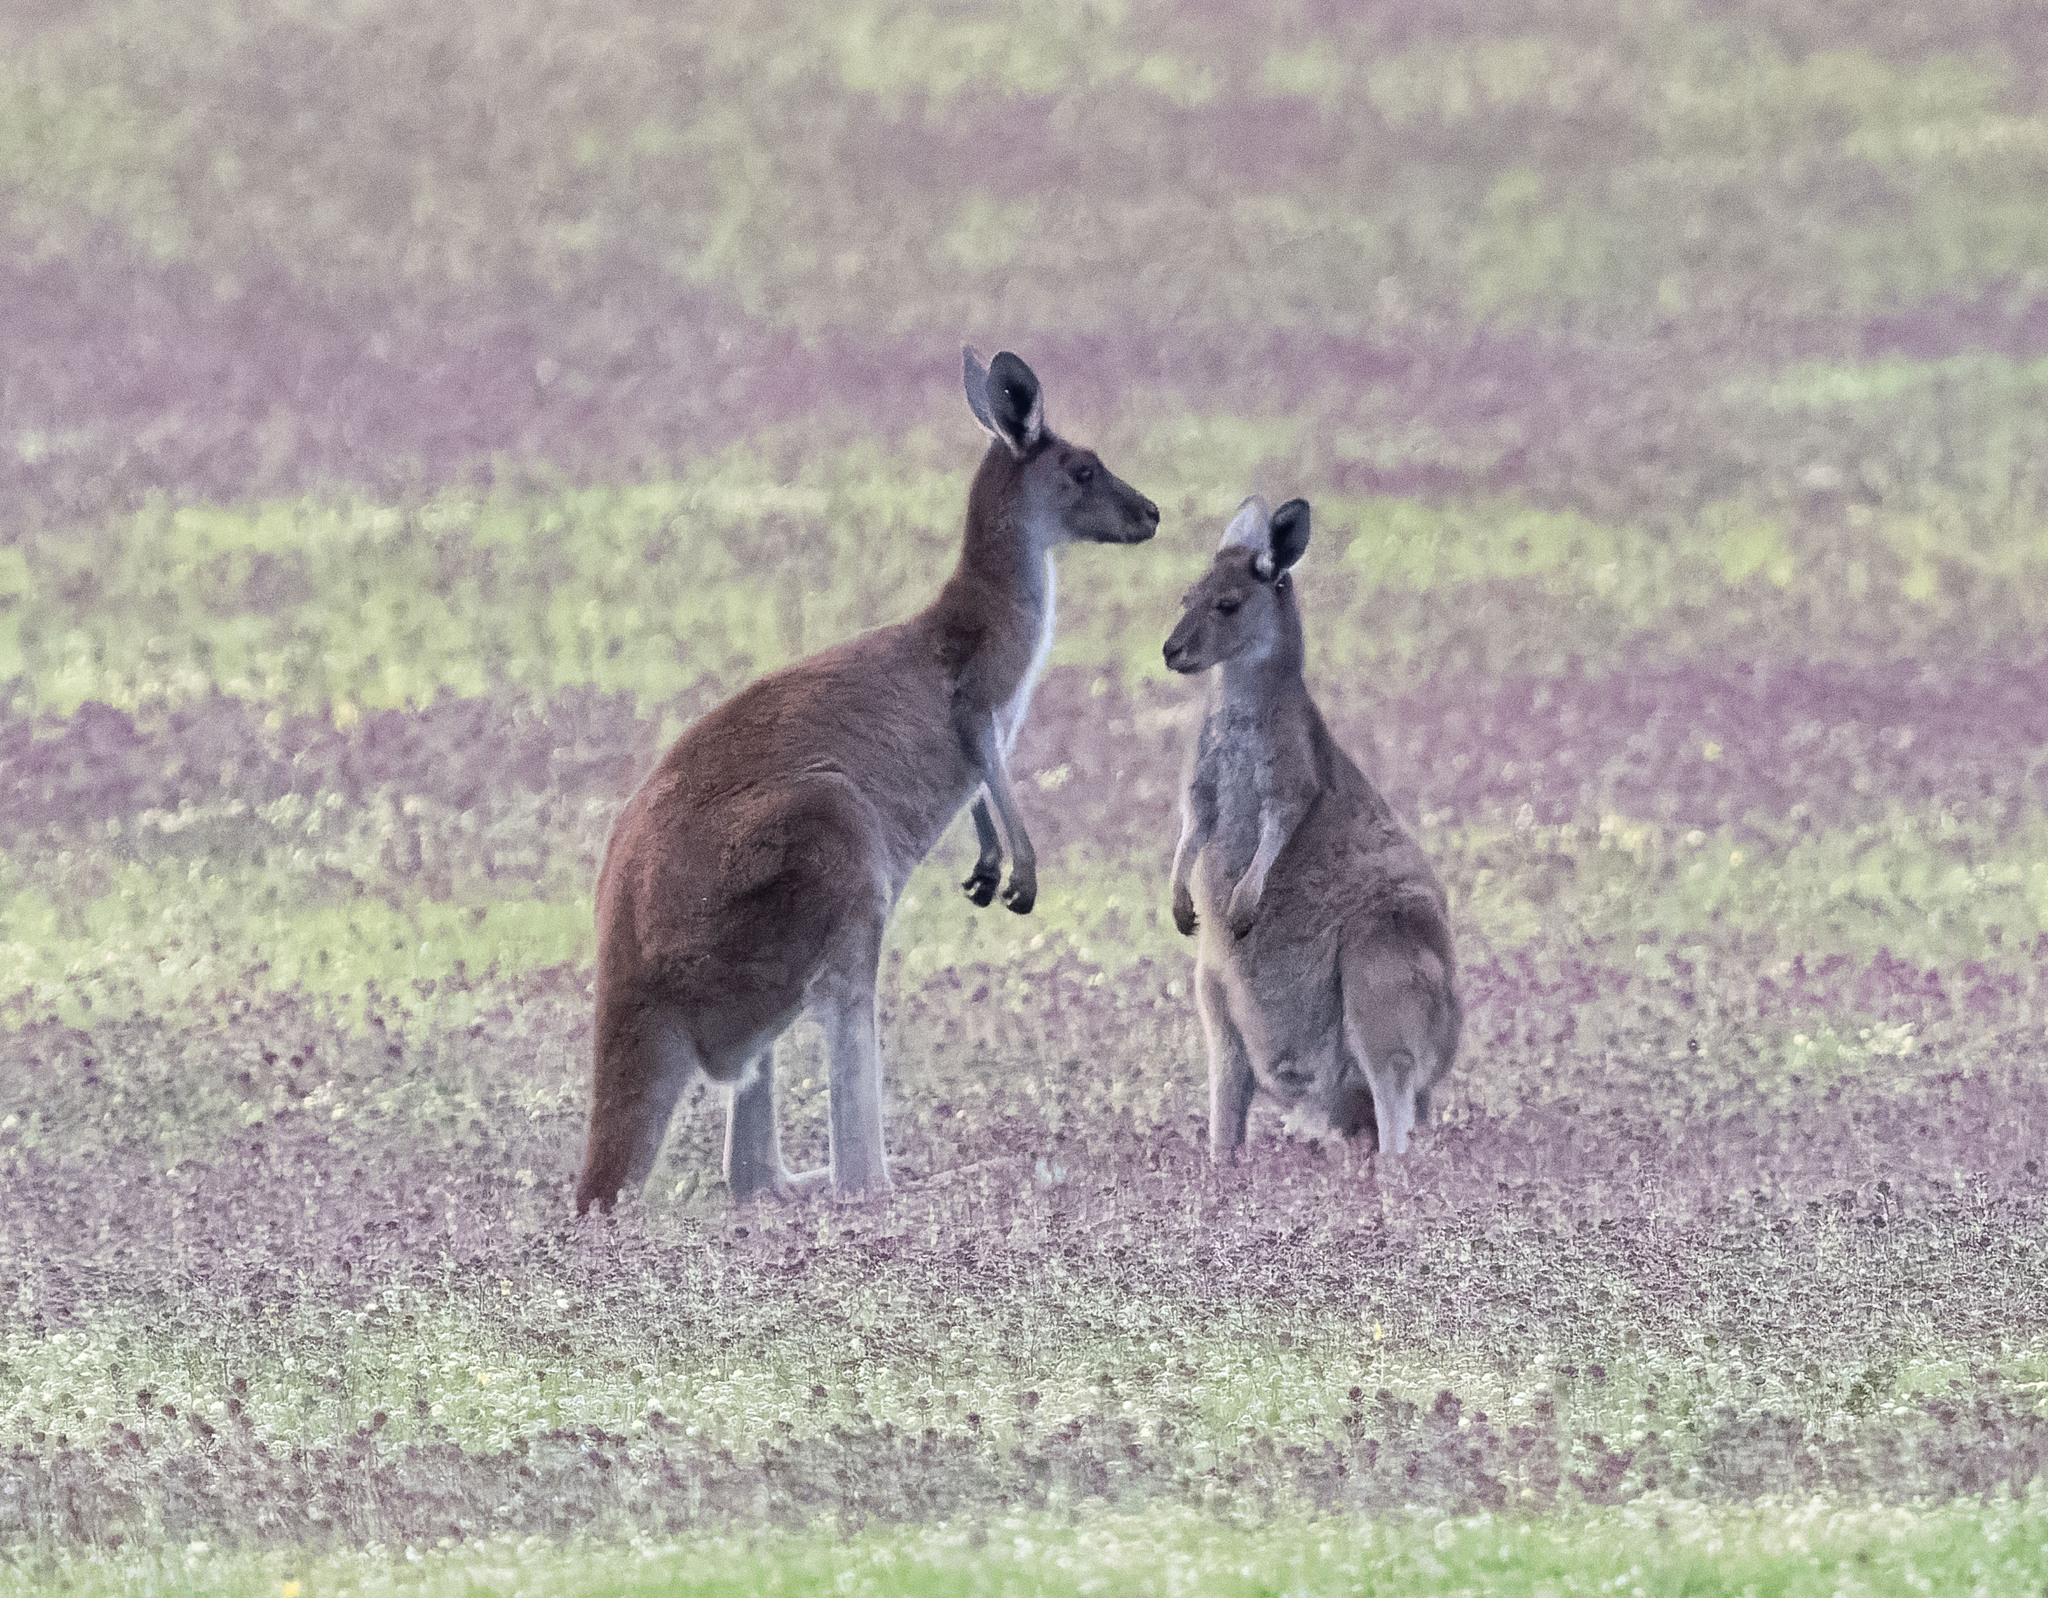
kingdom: Animalia
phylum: Chordata
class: Mammalia
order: Diprotodontia
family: Macropodidae
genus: Macropus
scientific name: Macropus fuliginosus
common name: Western grey kangaroo
